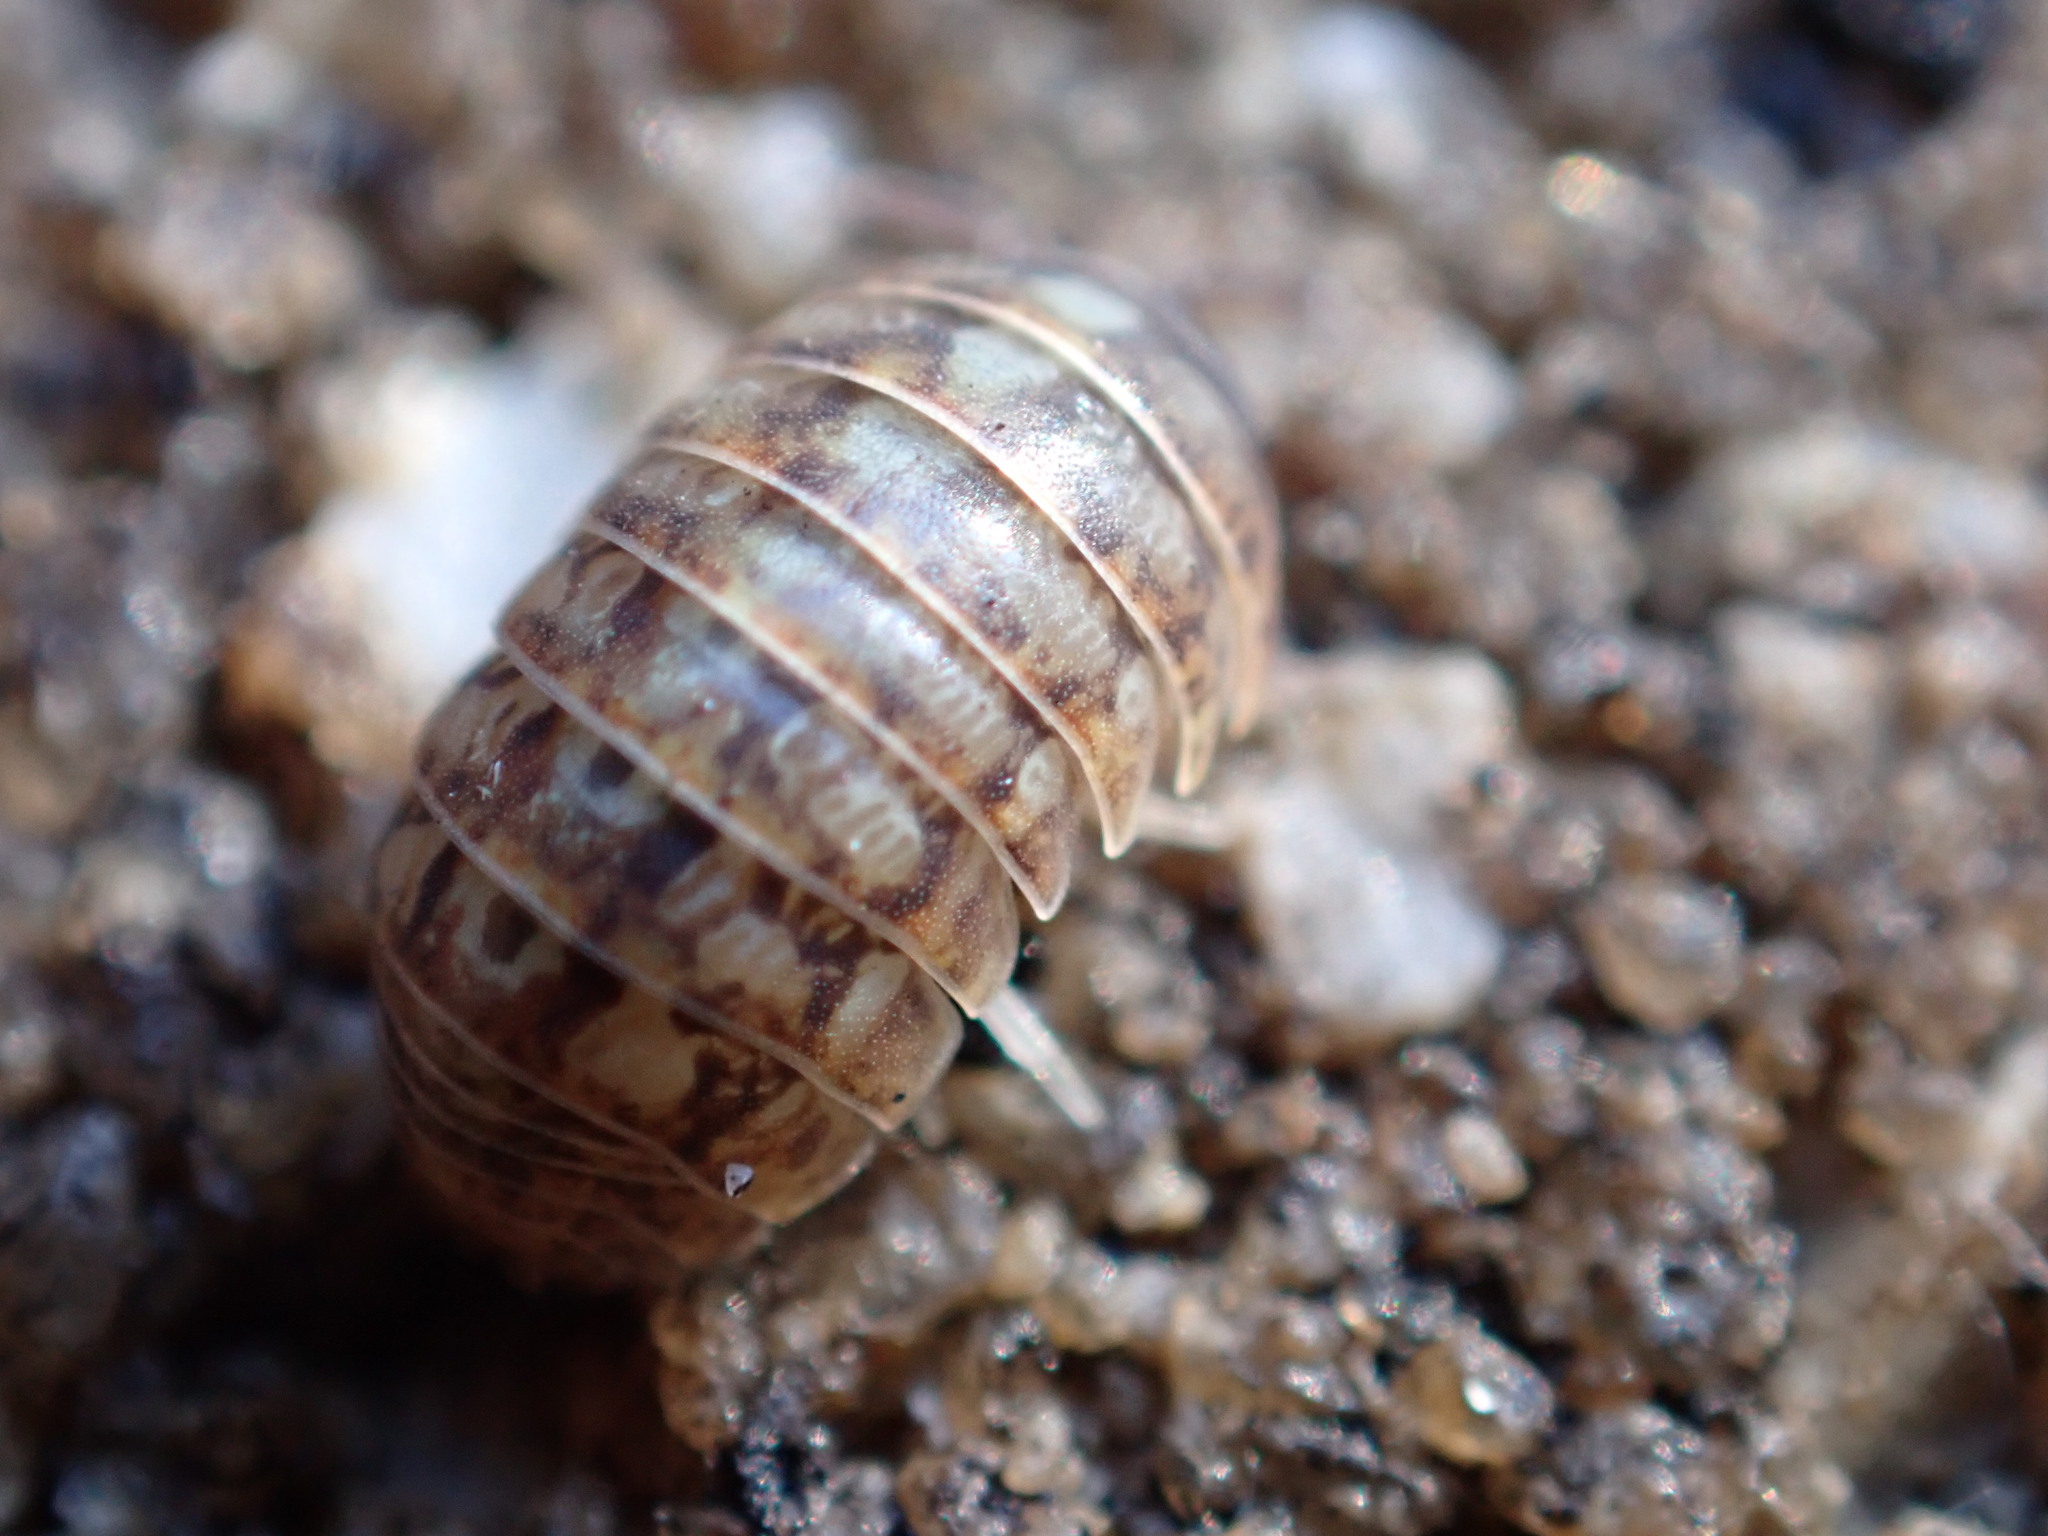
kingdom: Animalia
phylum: Arthropoda
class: Malacostraca
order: Isopoda
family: Armadillidiidae
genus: Armadillidium
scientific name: Armadillidium vulgare
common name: Common pill woodlouse
